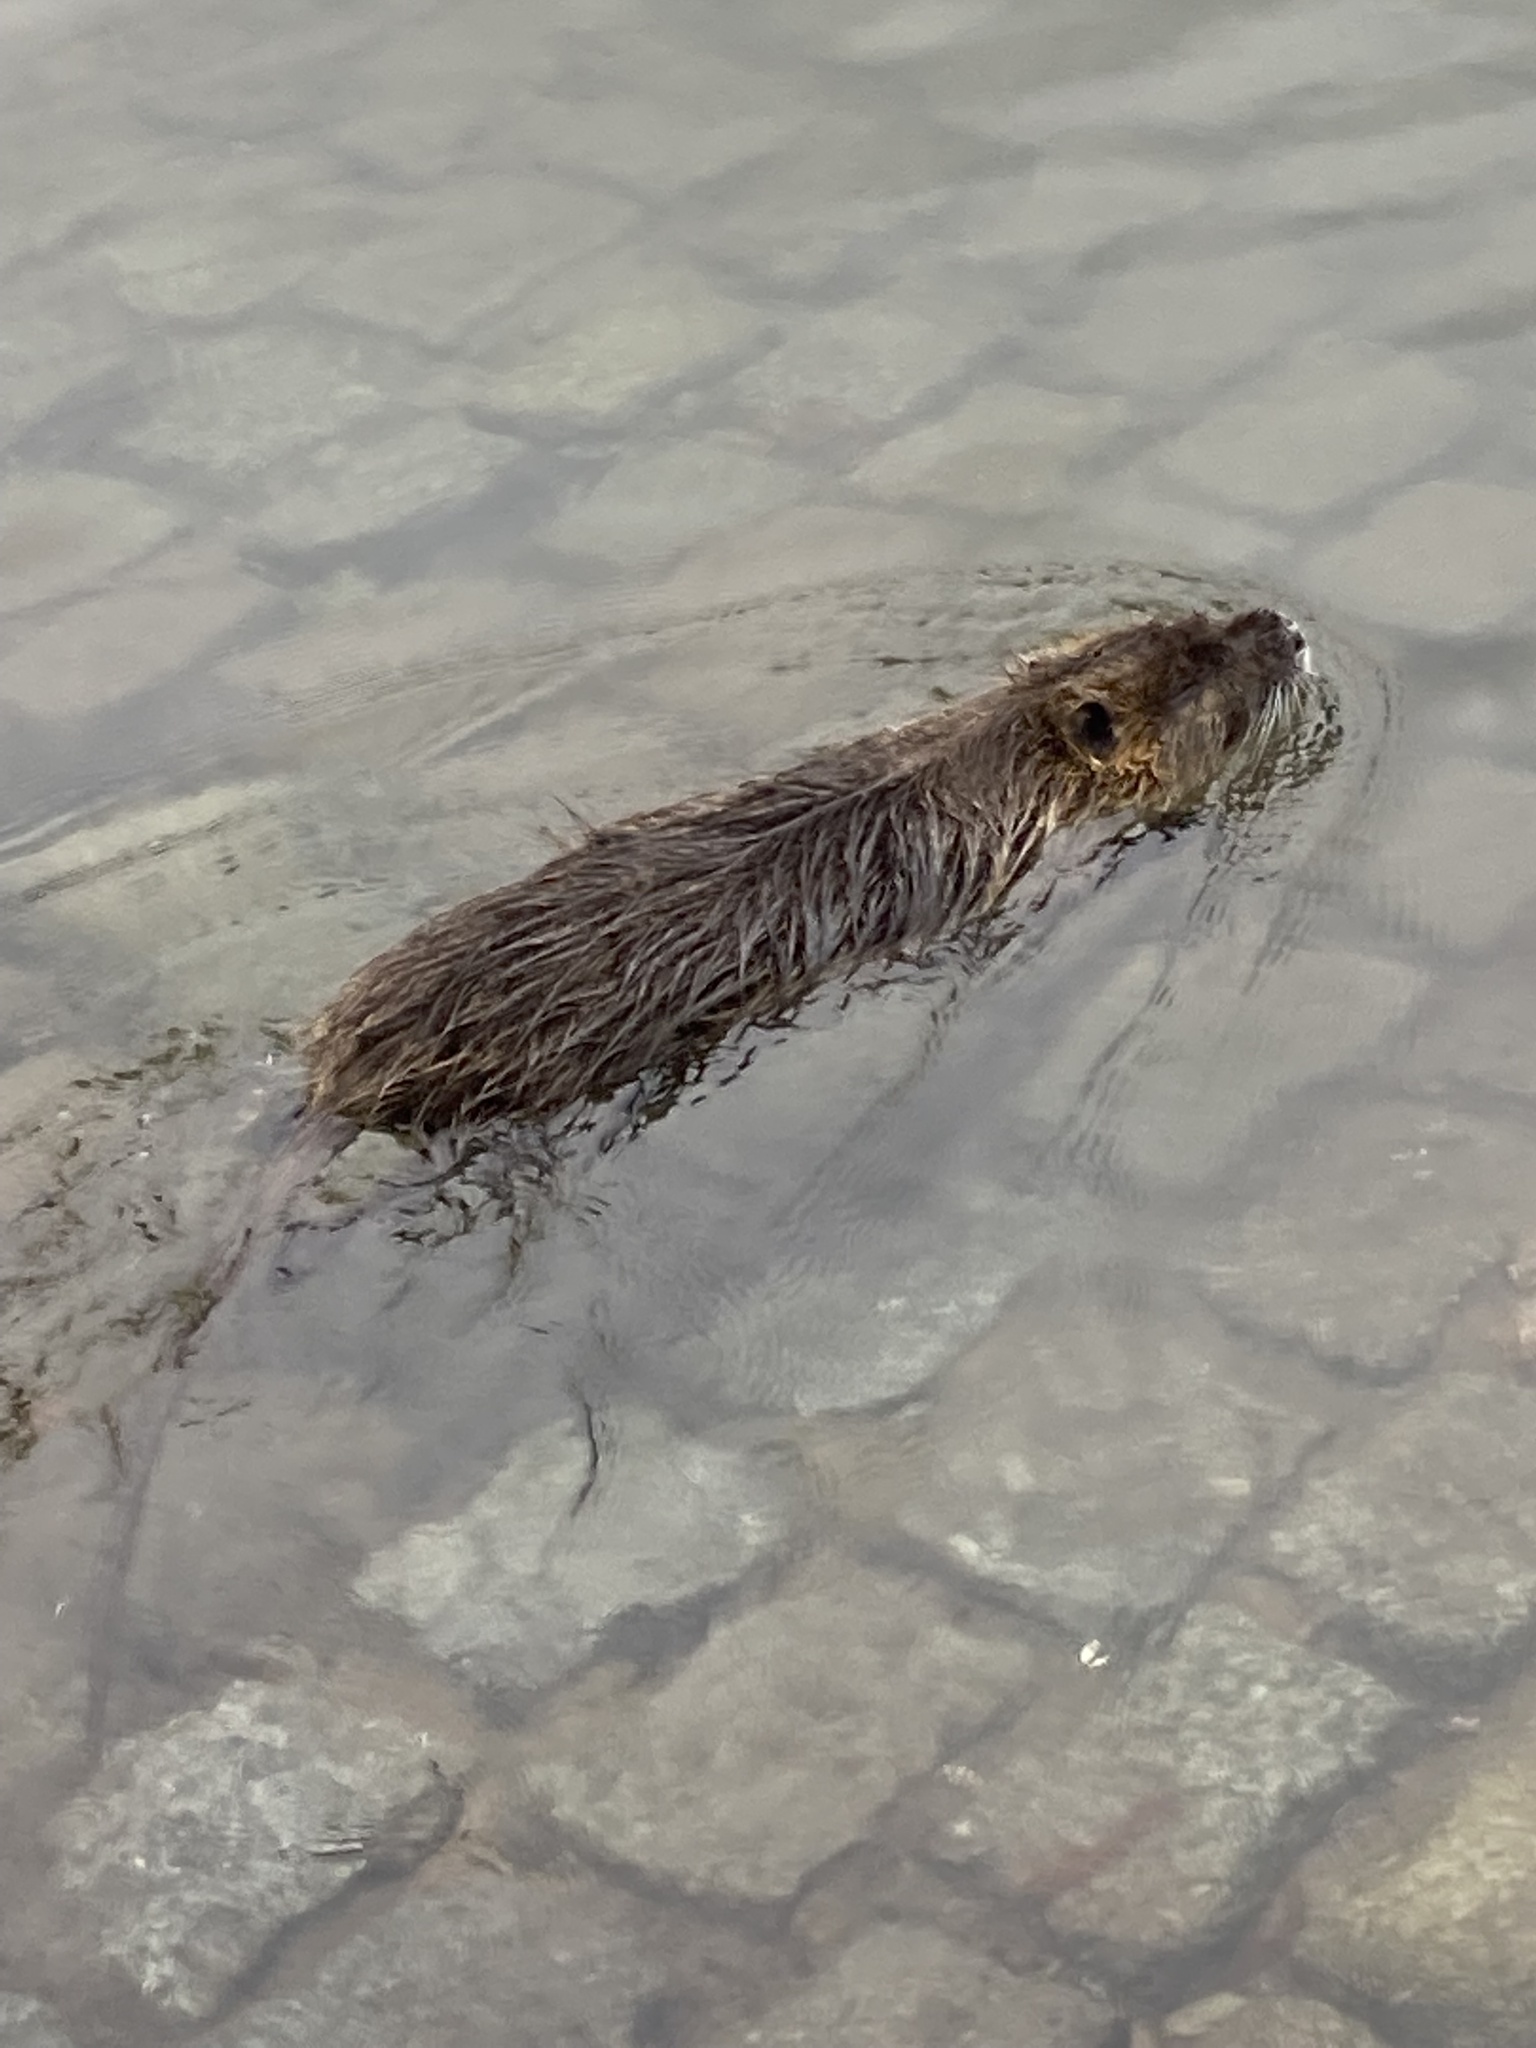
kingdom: Animalia
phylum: Chordata
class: Mammalia
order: Rodentia
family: Myocastoridae
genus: Myocastor
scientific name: Myocastor coypus
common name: Coypu
